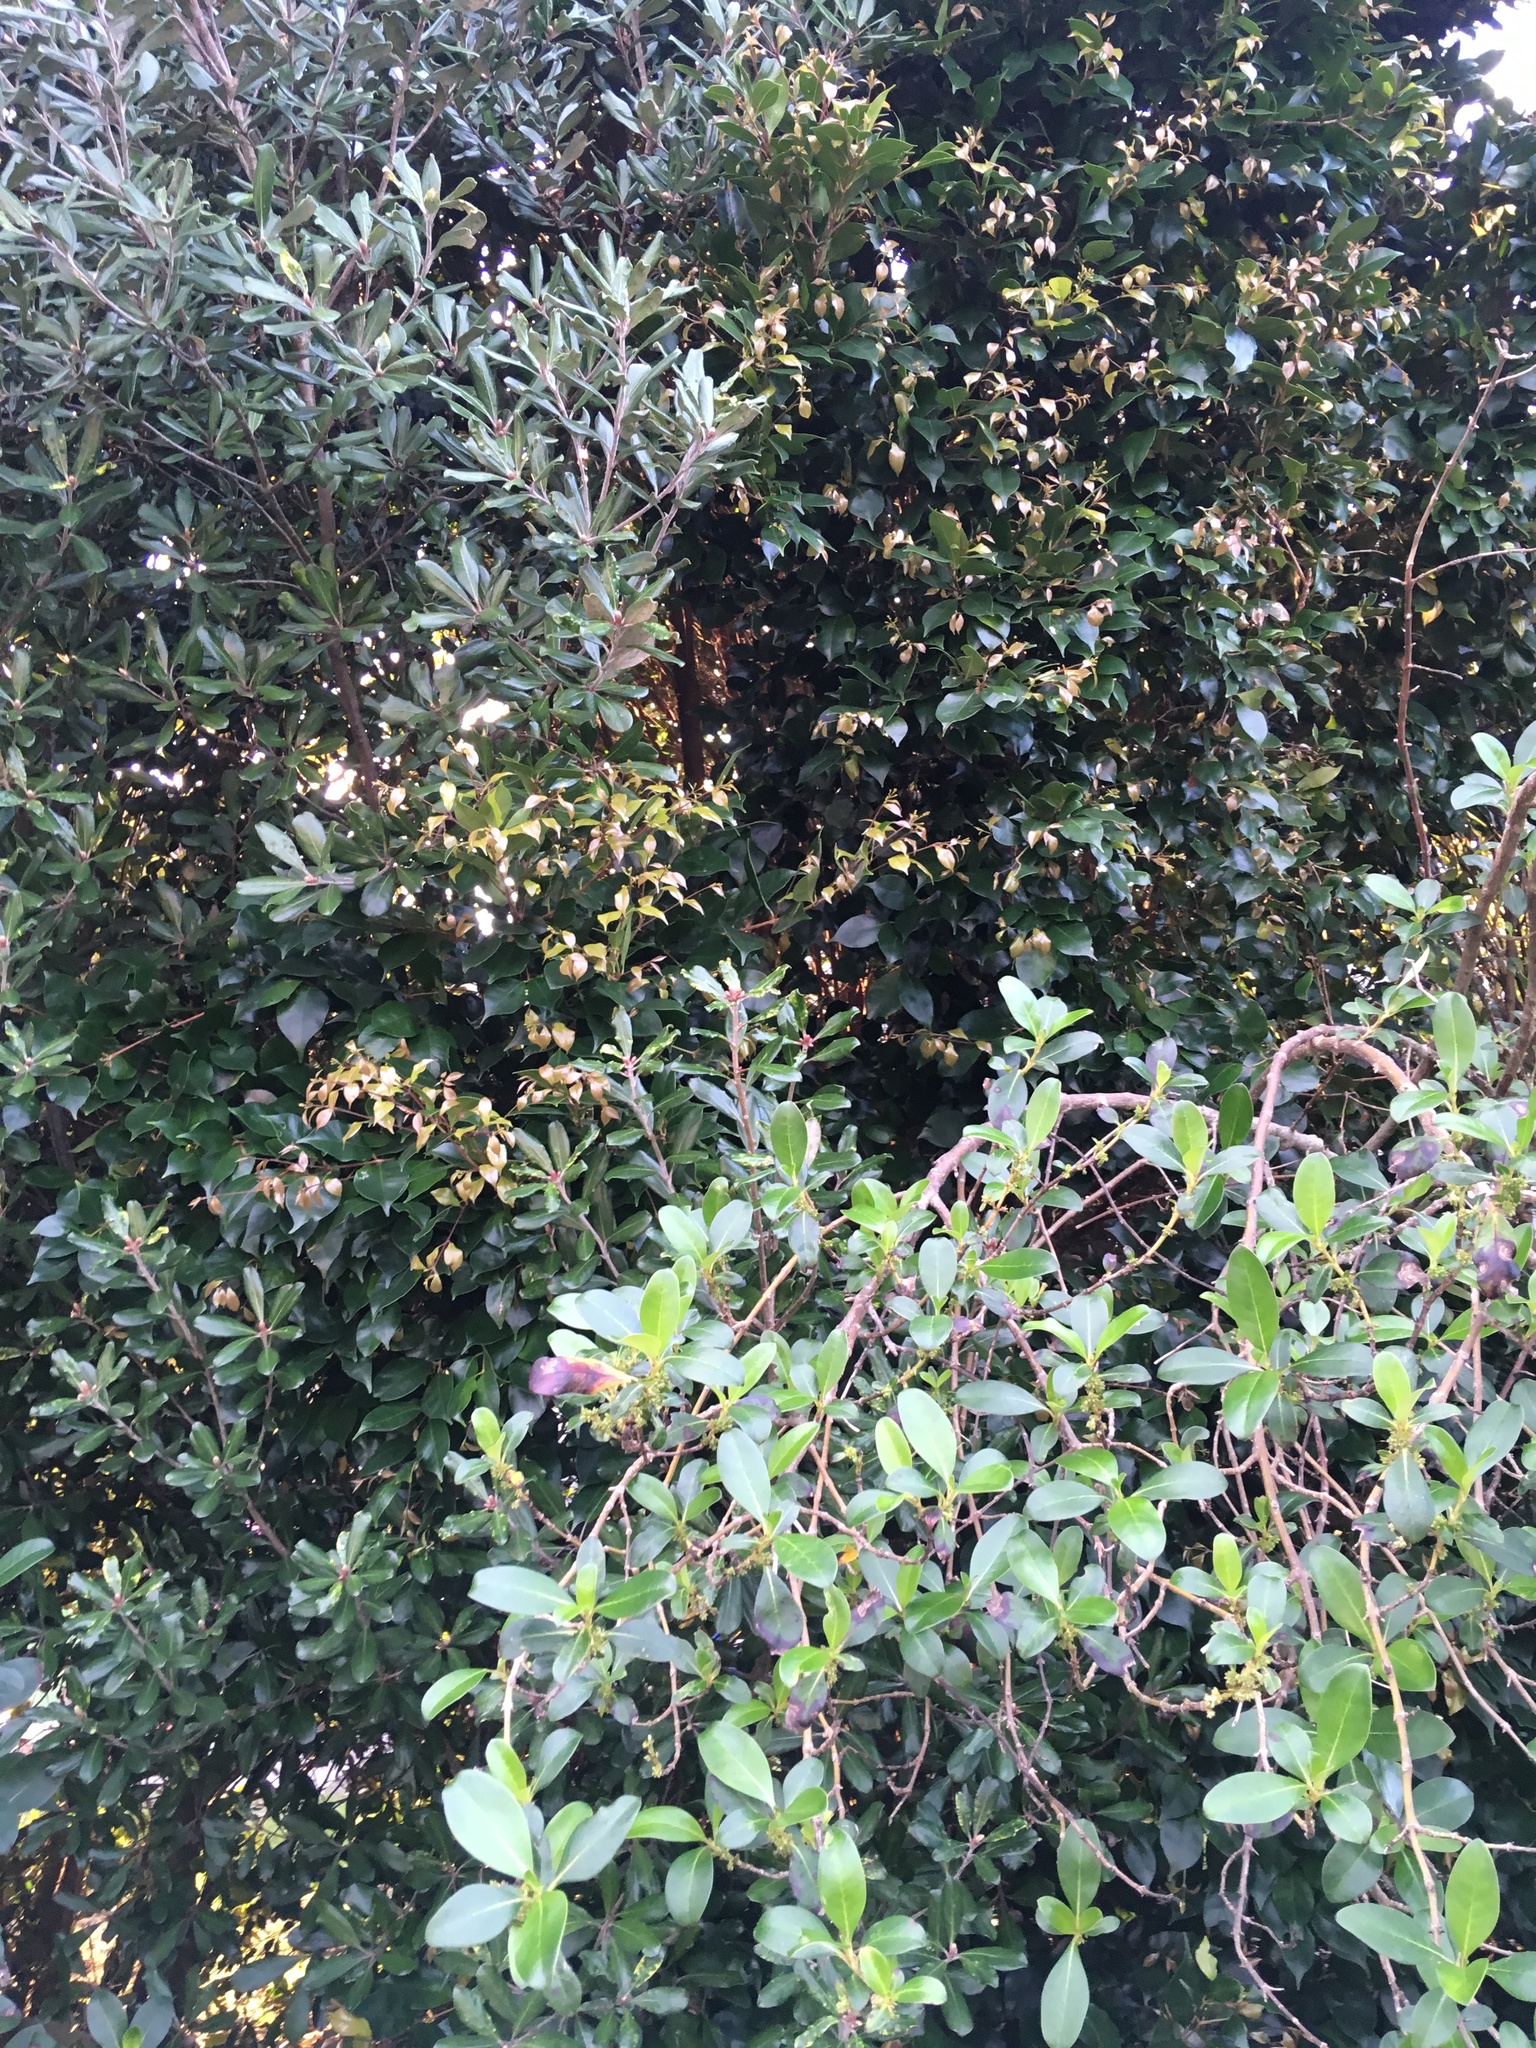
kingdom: Plantae
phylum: Tracheophyta
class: Magnoliopsida
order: Apiales
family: Pittosporaceae
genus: Pittosporum
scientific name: Pittosporum crassifolium
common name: Karo
